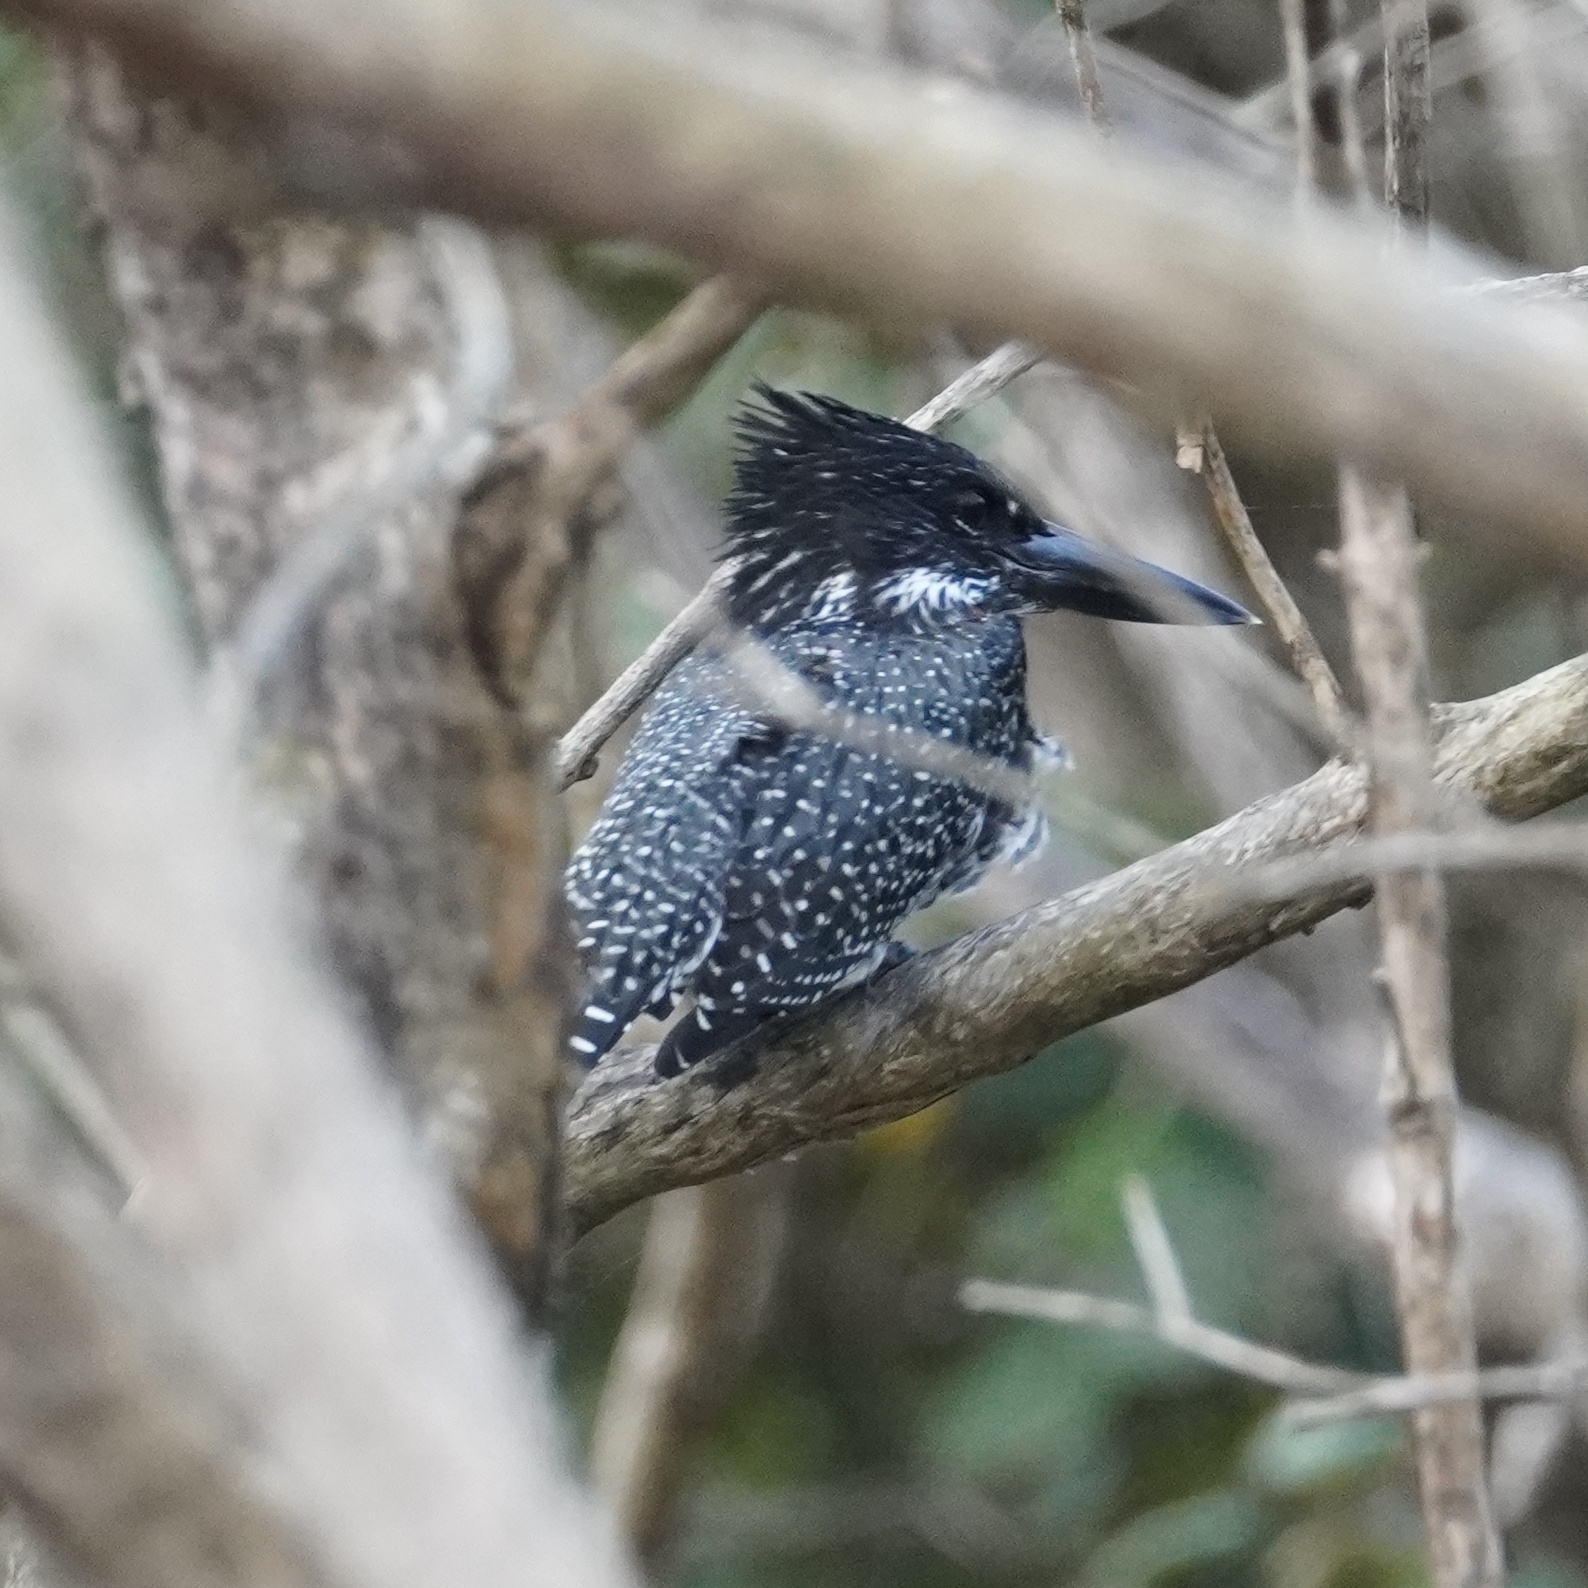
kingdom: Animalia
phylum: Chordata
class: Aves
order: Coraciiformes
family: Alcedinidae
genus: Megaceryle
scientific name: Megaceryle maxima
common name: Giant kingfisher
